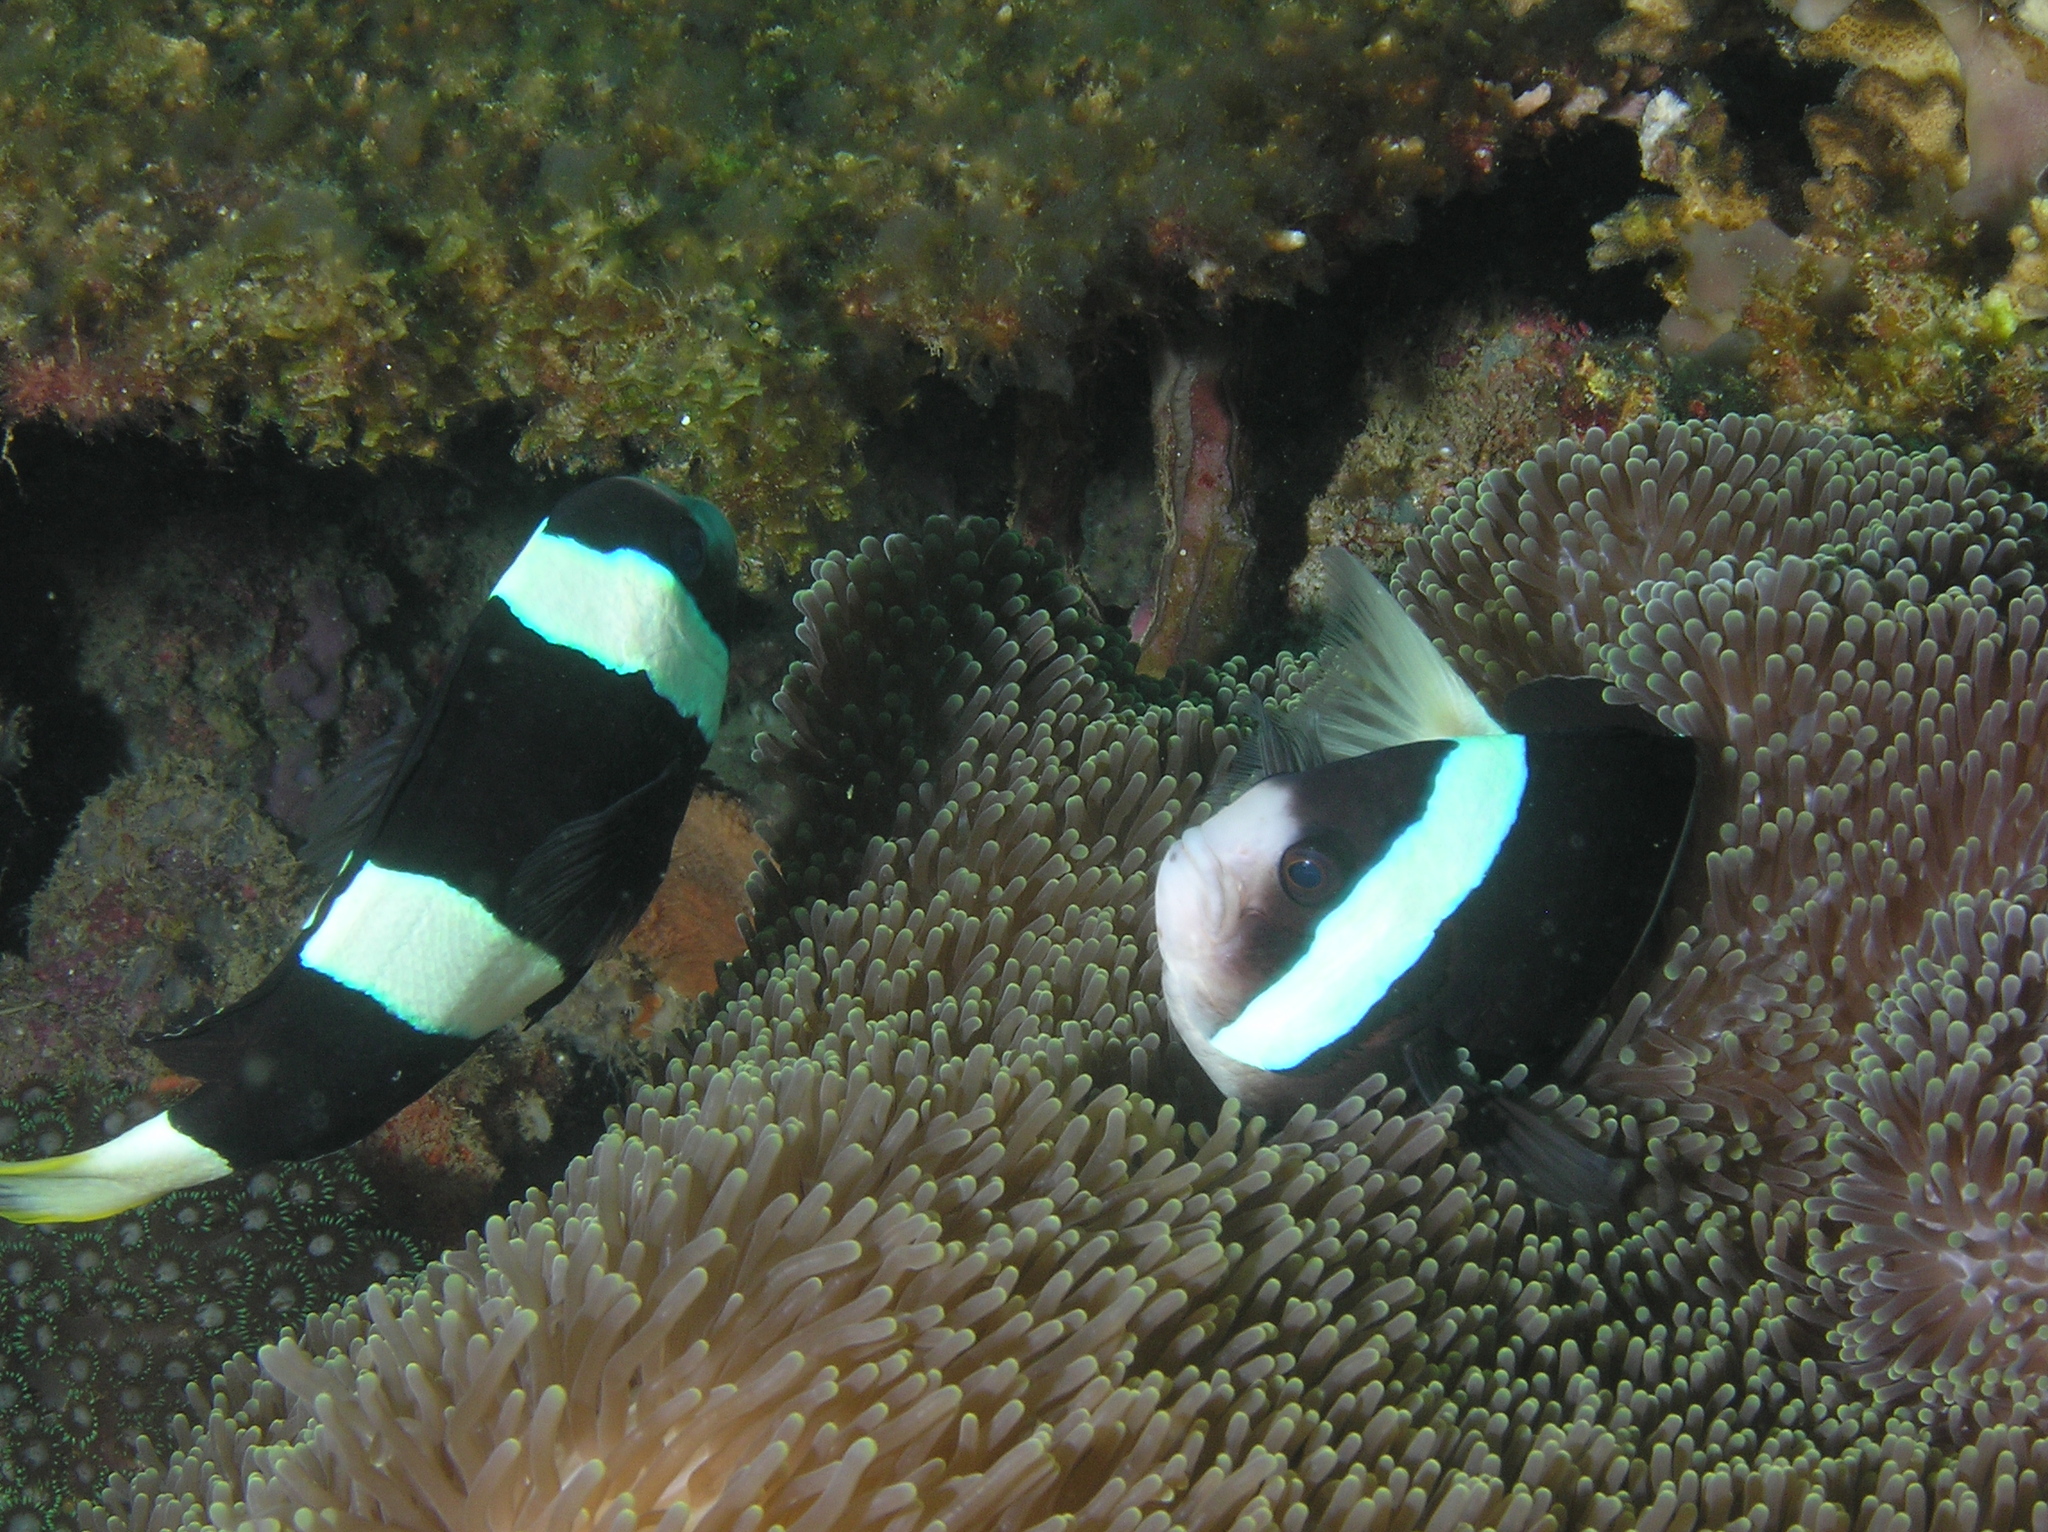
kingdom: Animalia
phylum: Chordata
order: Perciformes
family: Pomacentridae
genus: Amphiprion
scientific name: Amphiprion clarkii
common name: Clark's anemonefish
